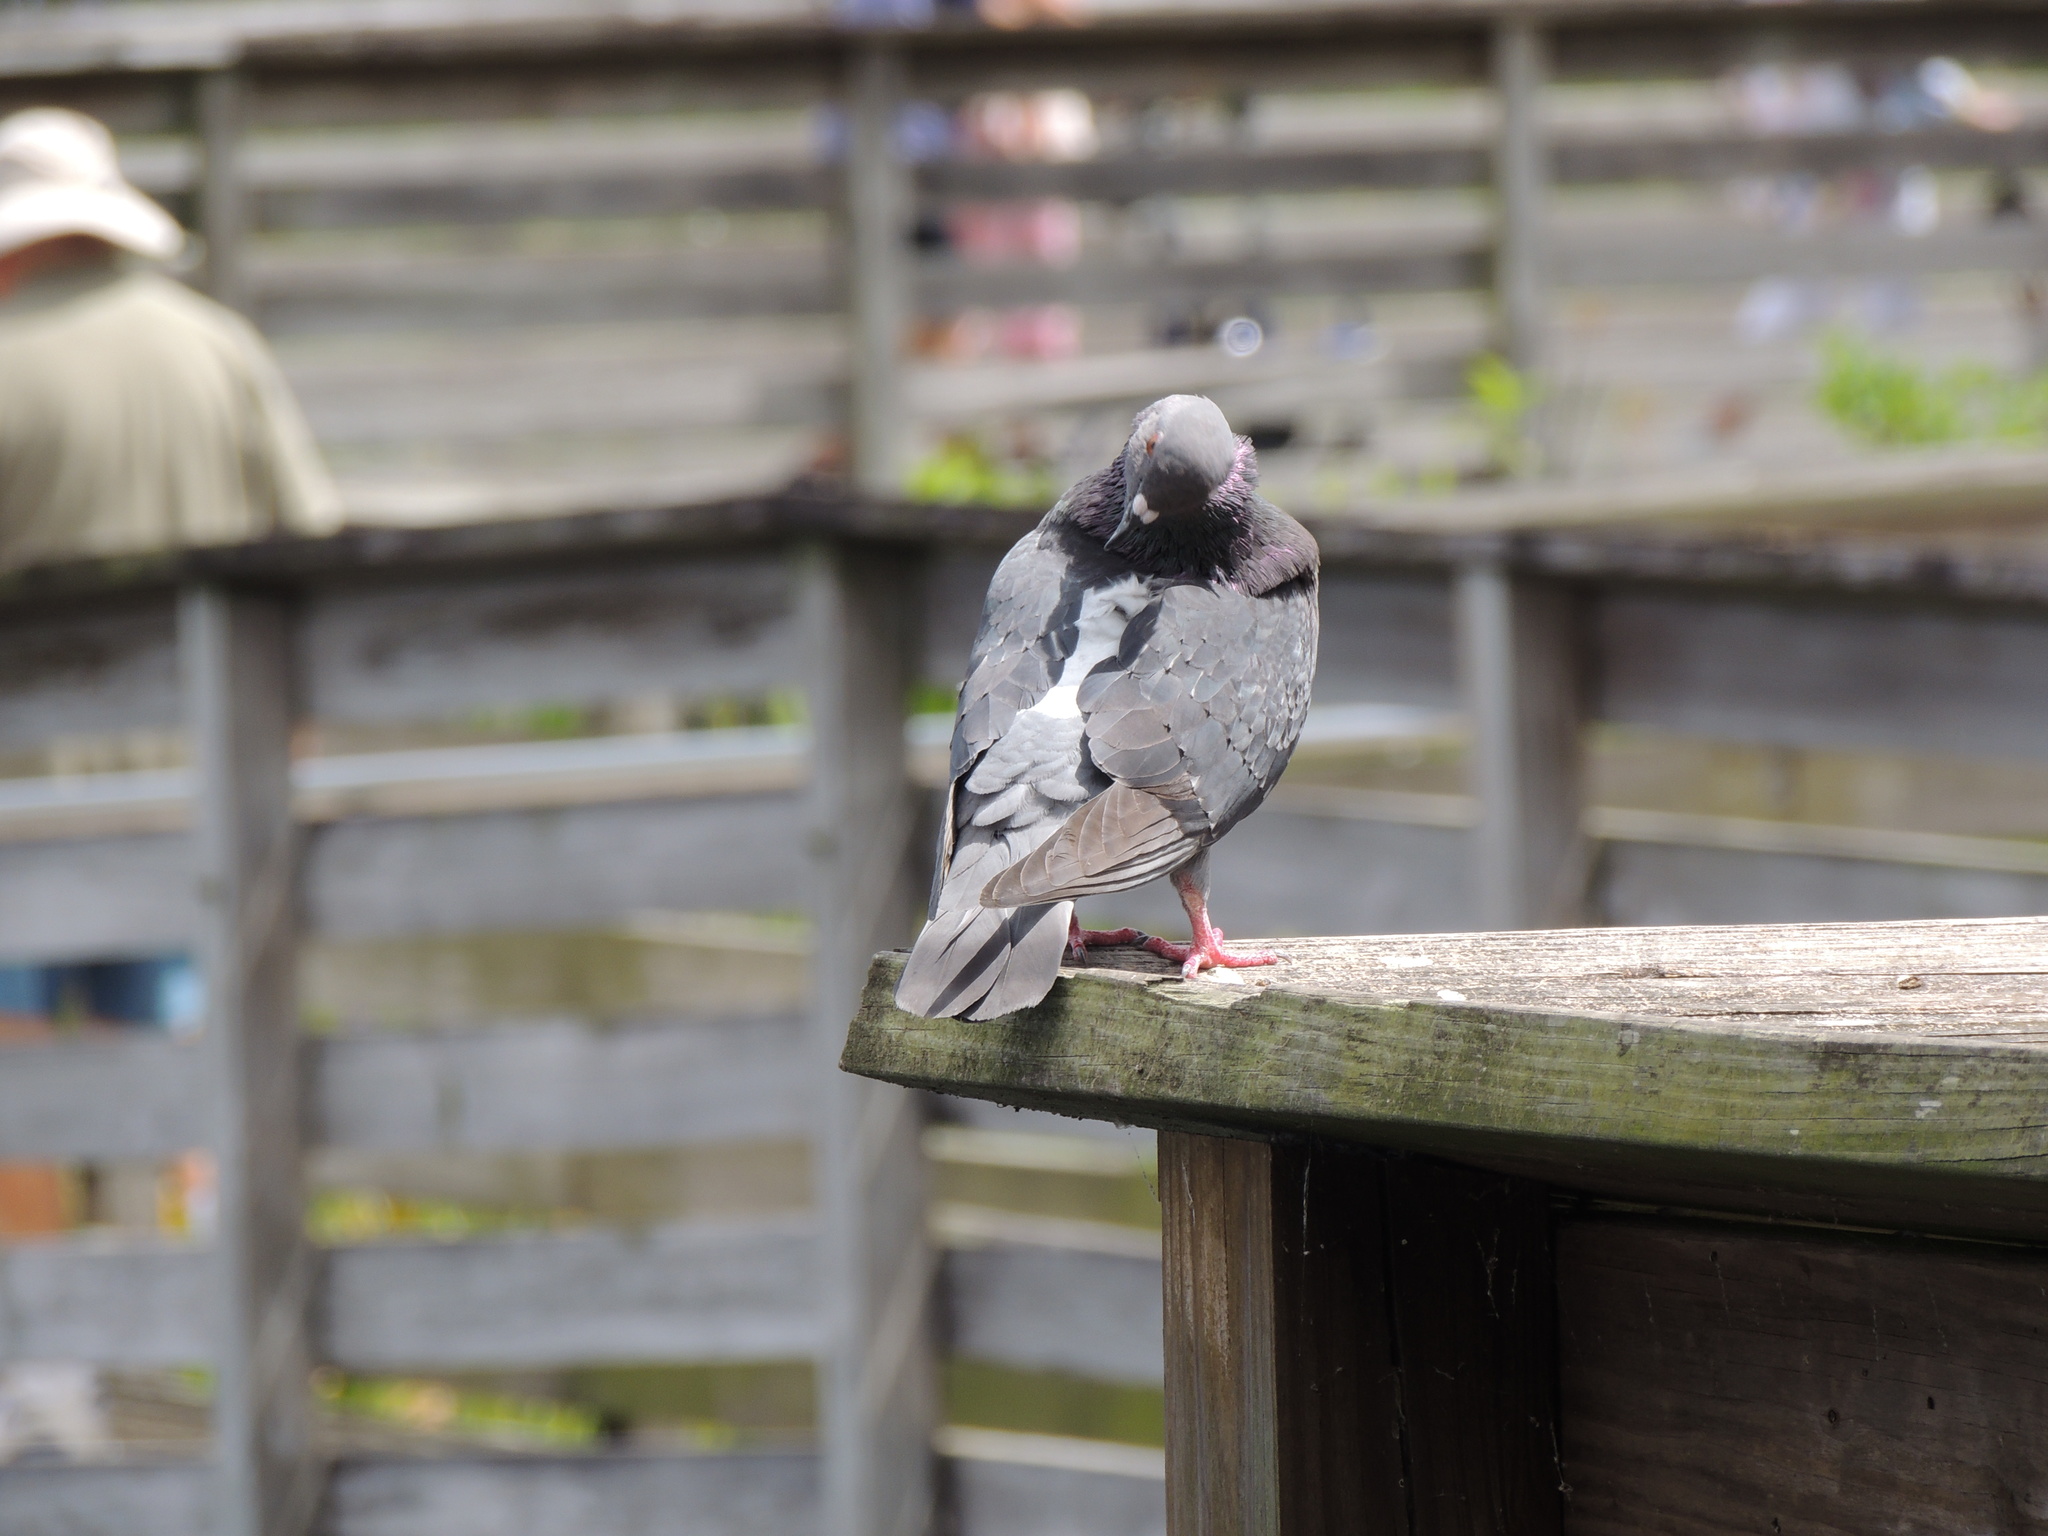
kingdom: Animalia
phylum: Chordata
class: Aves
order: Columbiformes
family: Columbidae
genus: Columba
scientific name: Columba livia
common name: Rock pigeon
